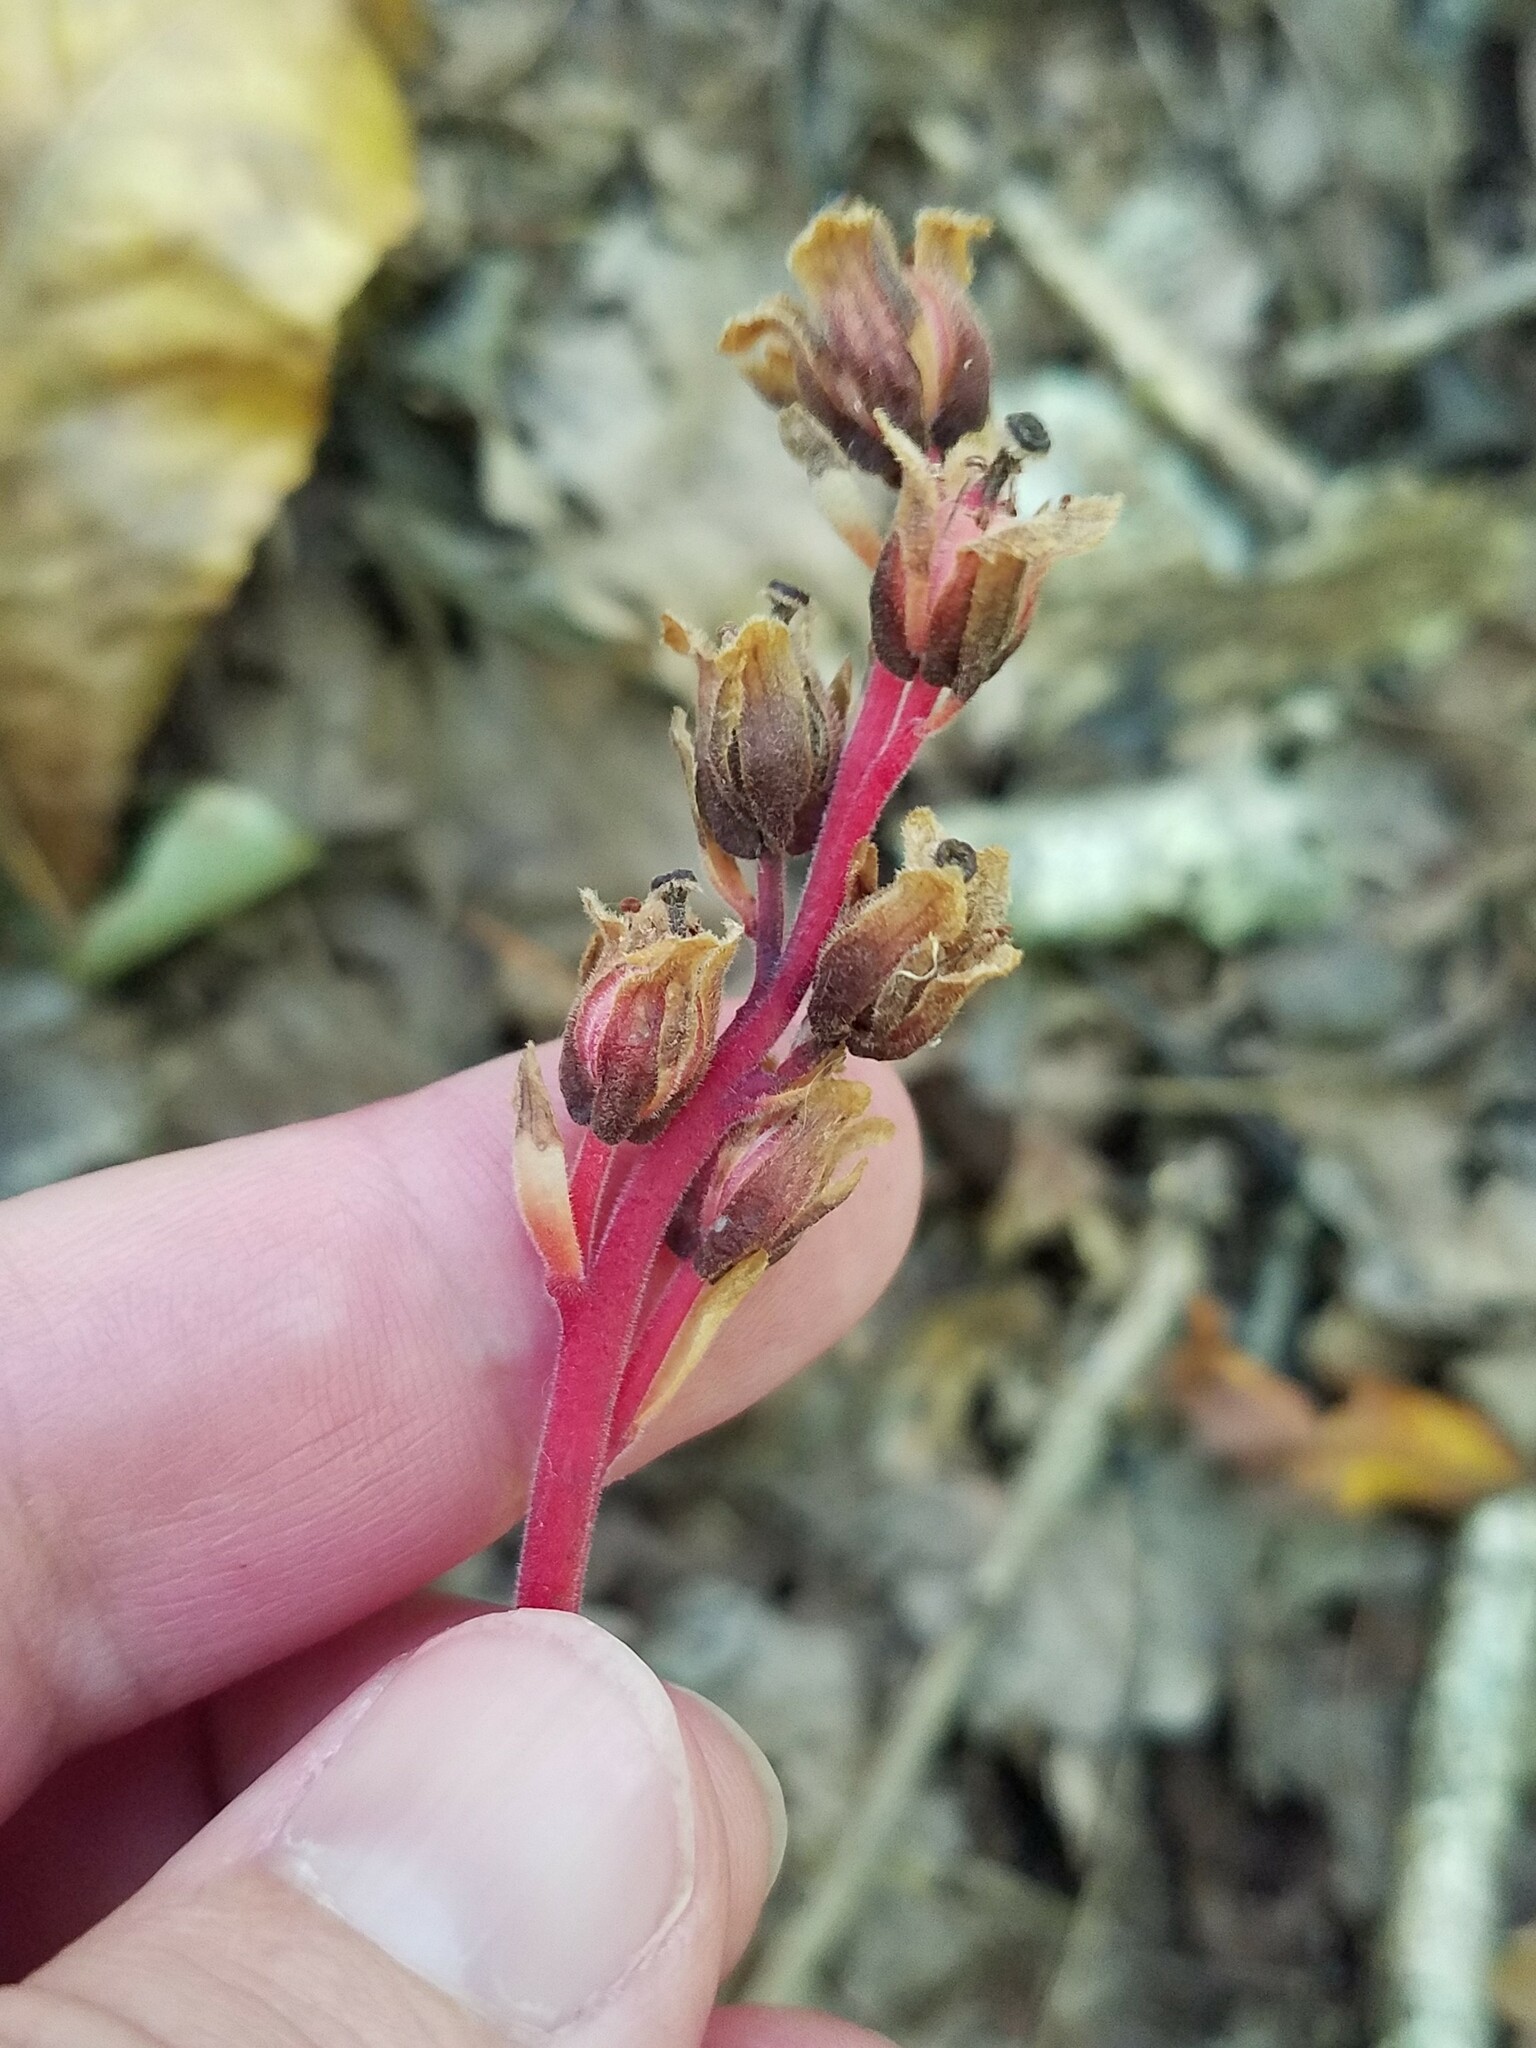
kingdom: Plantae
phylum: Tracheophyta
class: Magnoliopsida
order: Ericales
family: Ericaceae
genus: Hypopitys
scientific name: Hypopitys monotropa
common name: Yellow bird's-nest
